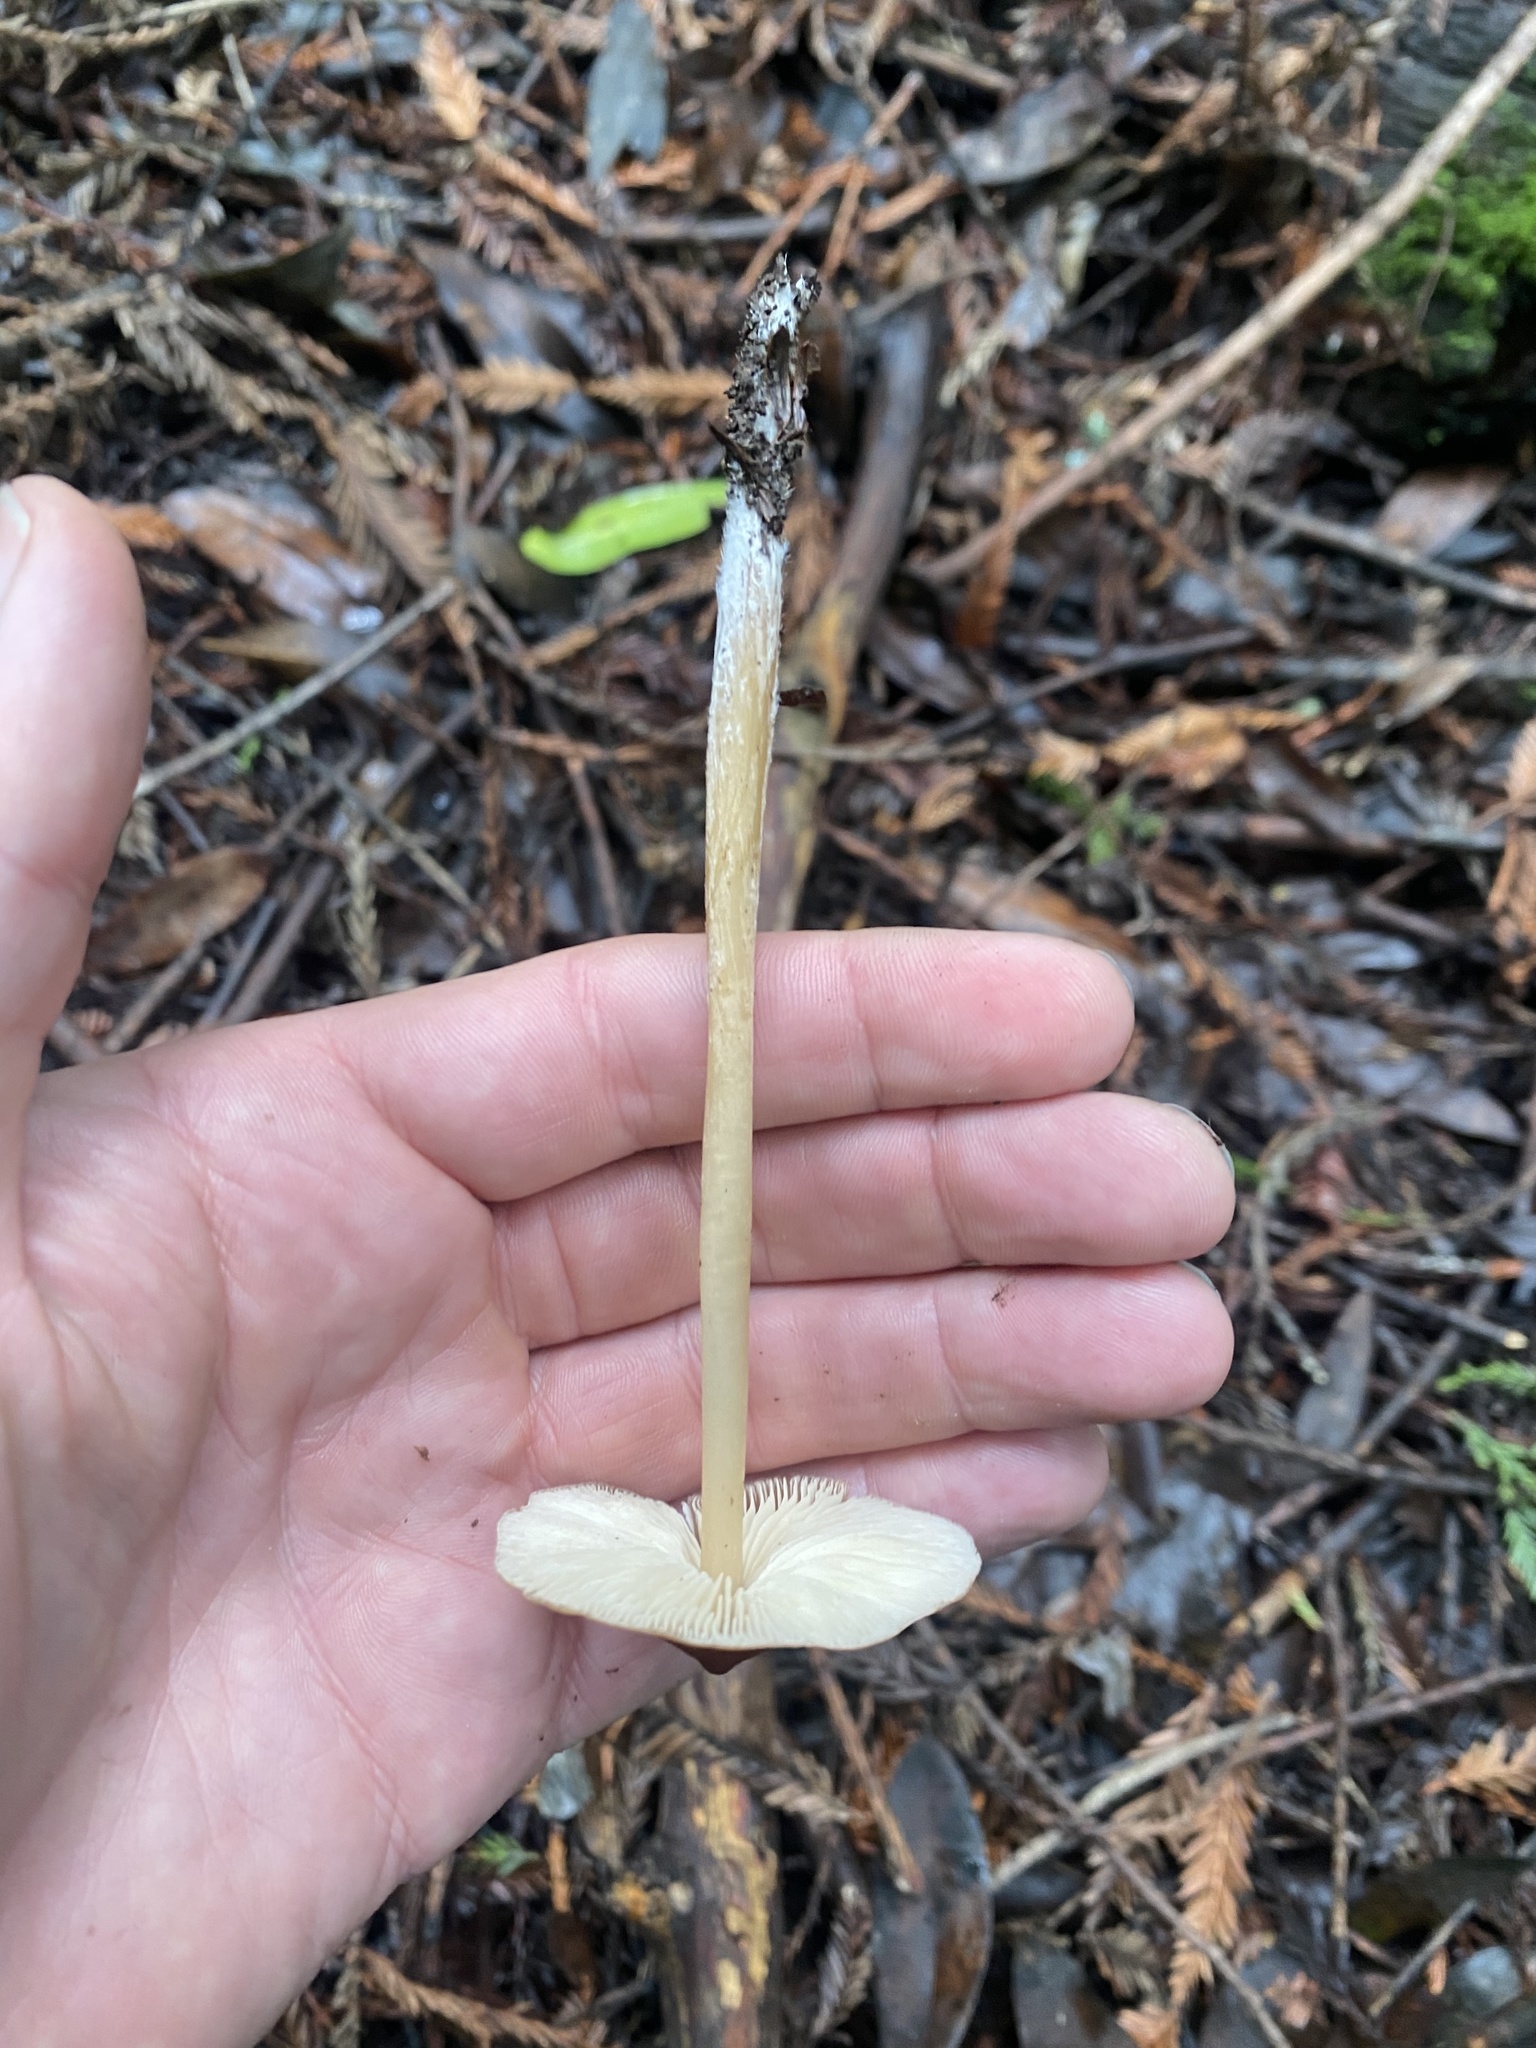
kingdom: Fungi
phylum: Basidiomycota
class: Agaricomycetes
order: Agaricales
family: Tricholomataceae
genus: Caulorhiza
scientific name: Caulorhiza umbonata
